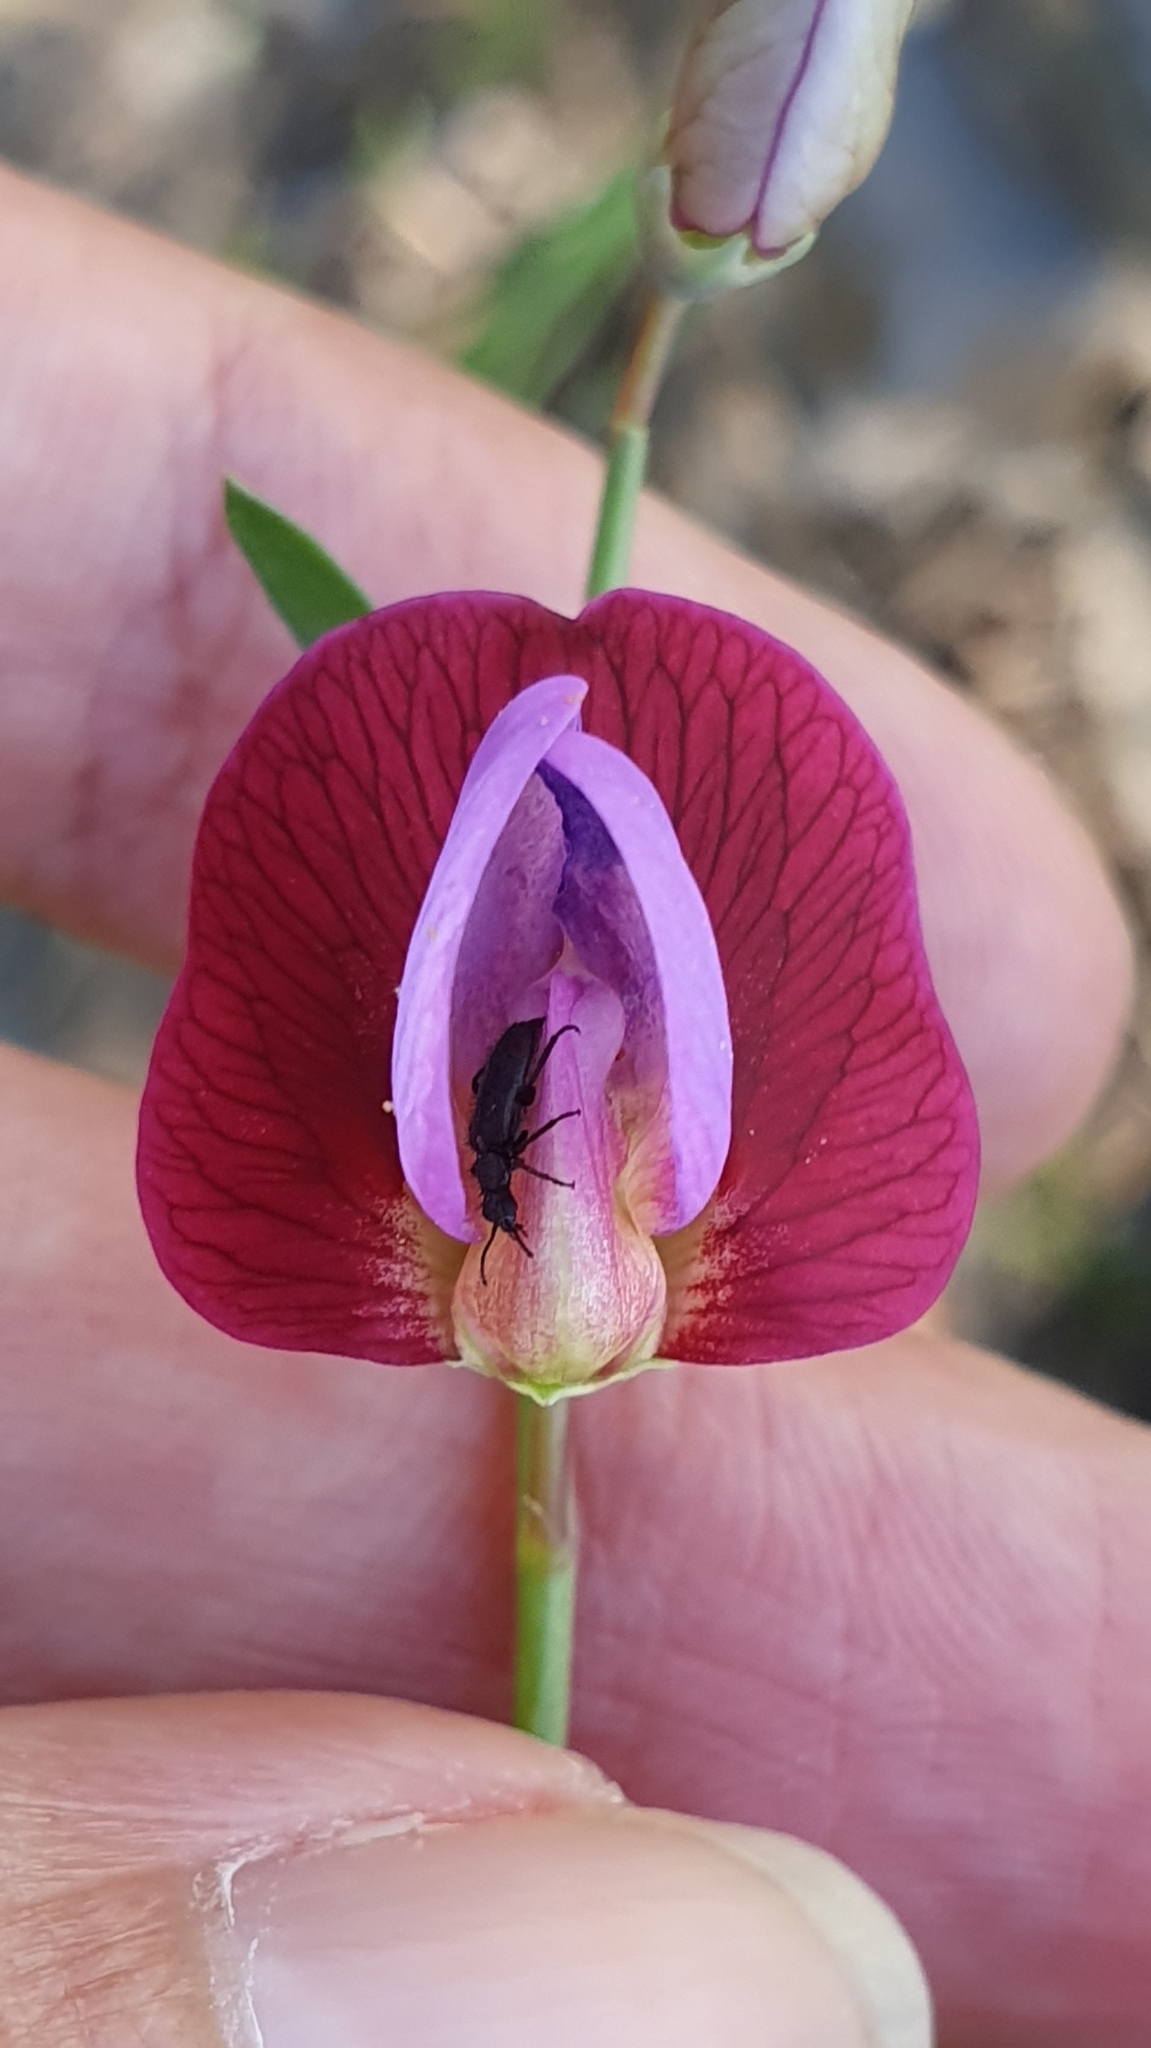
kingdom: Plantae
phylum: Tracheophyta
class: Magnoliopsida
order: Fabales
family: Fabaceae
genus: Lathyrus
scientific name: Lathyrus clymenum
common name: Spanish vetchling
